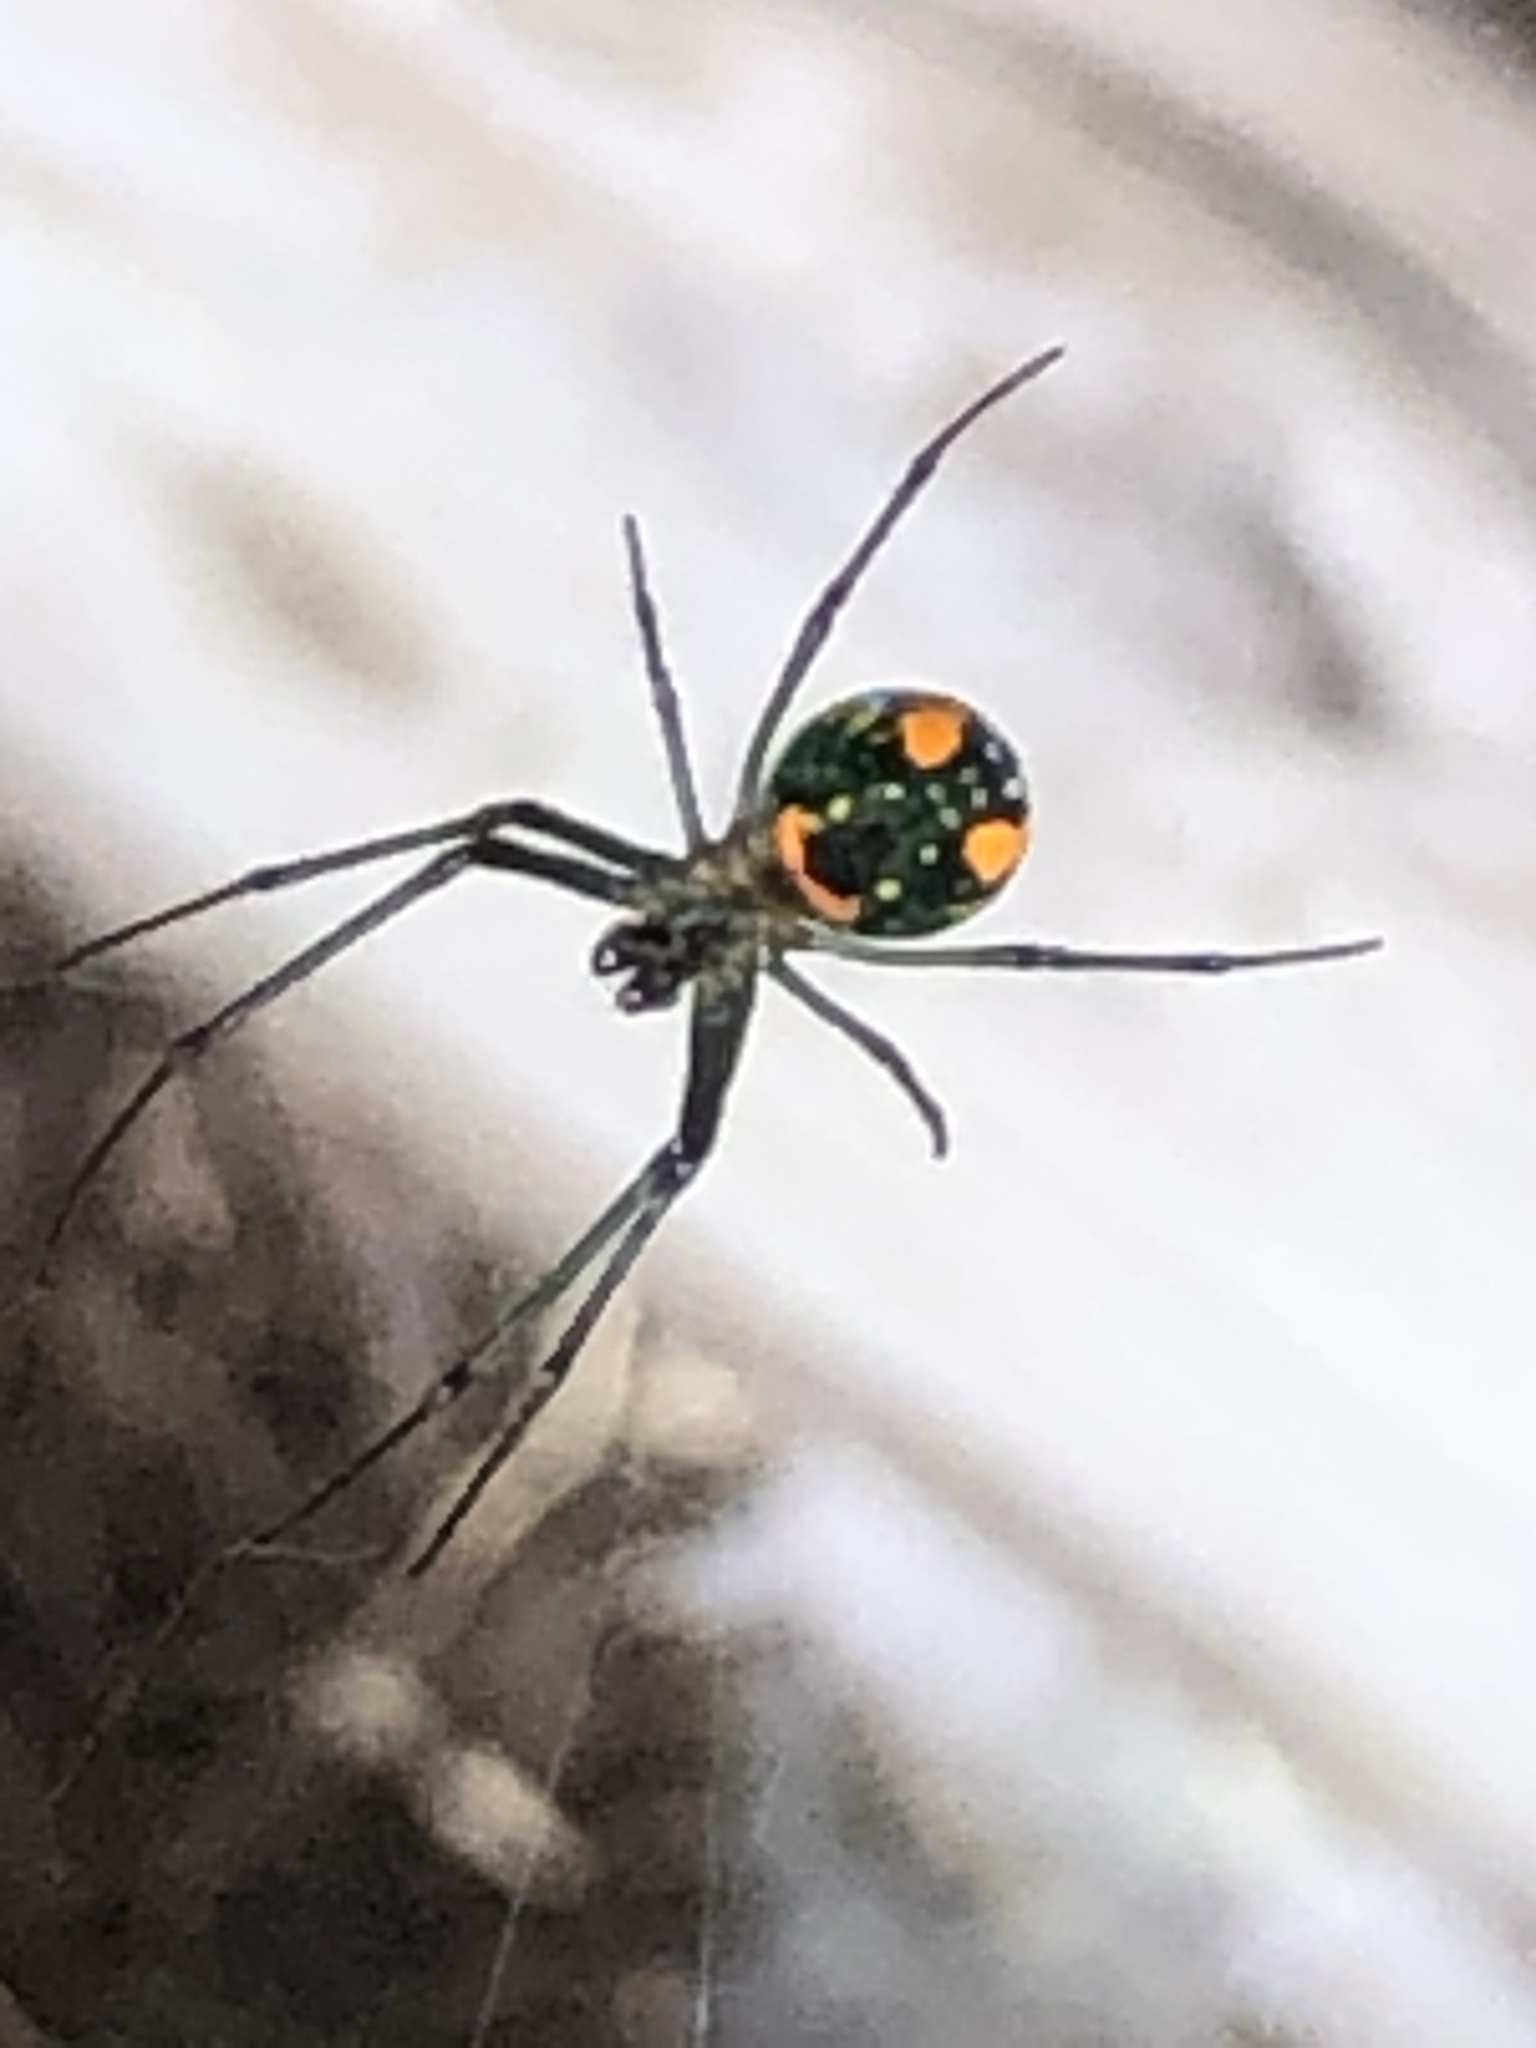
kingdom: Animalia
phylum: Arthropoda
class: Arachnida
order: Araneae
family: Tetragnathidae
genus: Leucauge
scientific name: Leucauge argyrobapta
